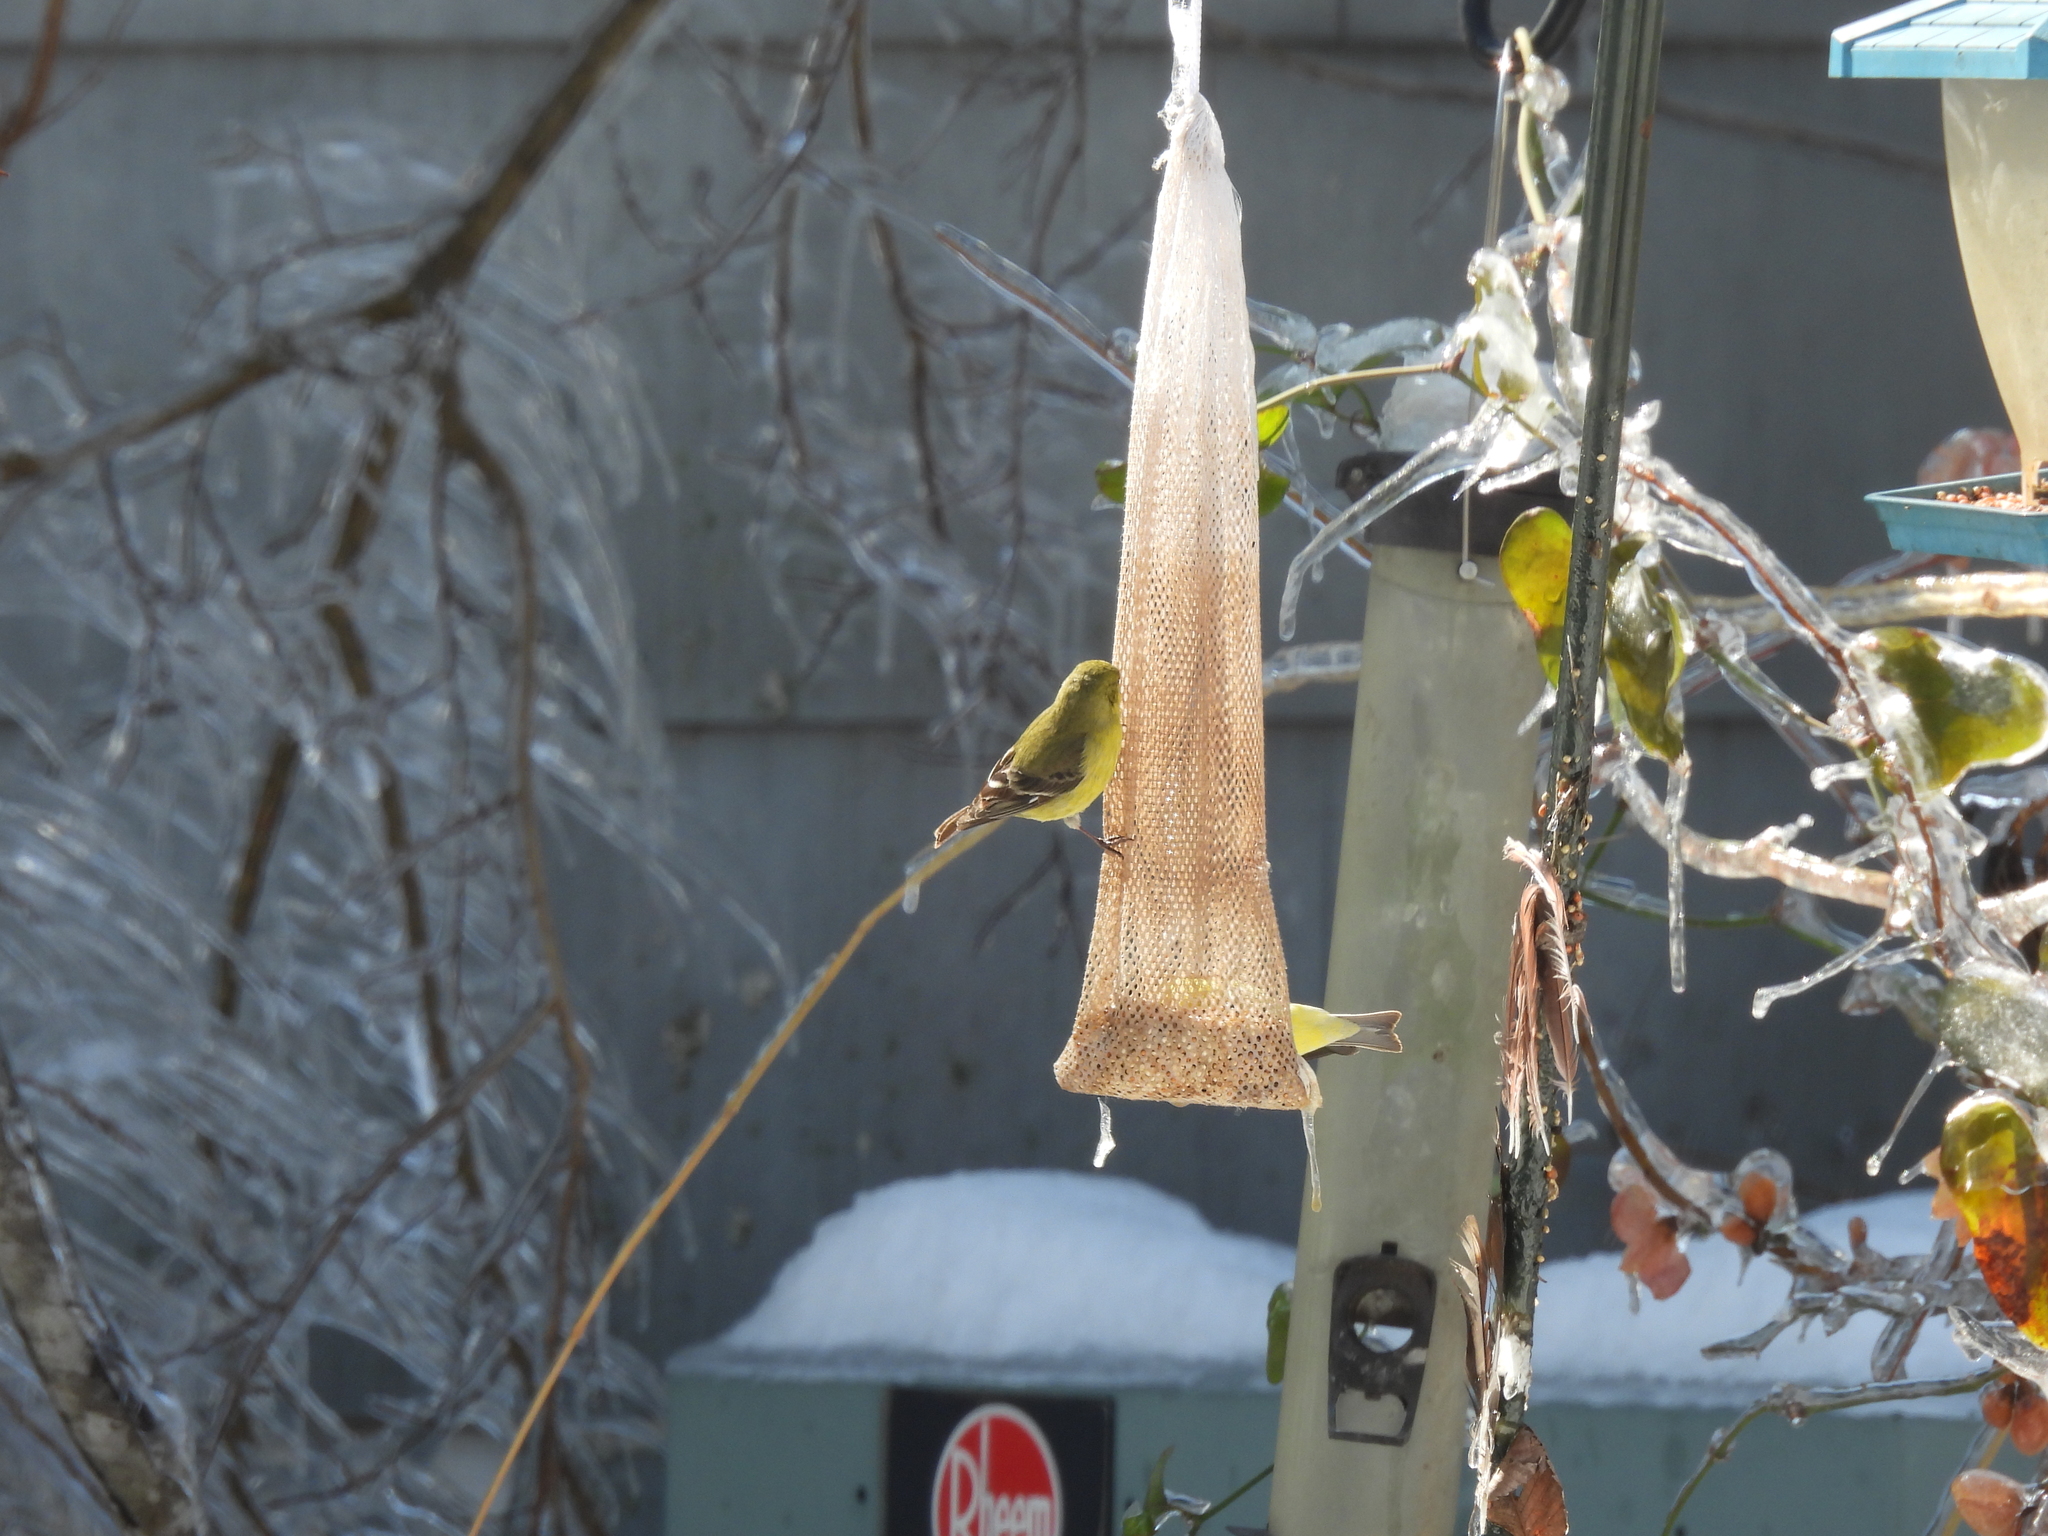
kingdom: Animalia
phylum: Chordata
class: Aves
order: Passeriformes
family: Fringillidae
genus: Spinus
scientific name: Spinus psaltria
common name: Lesser goldfinch
